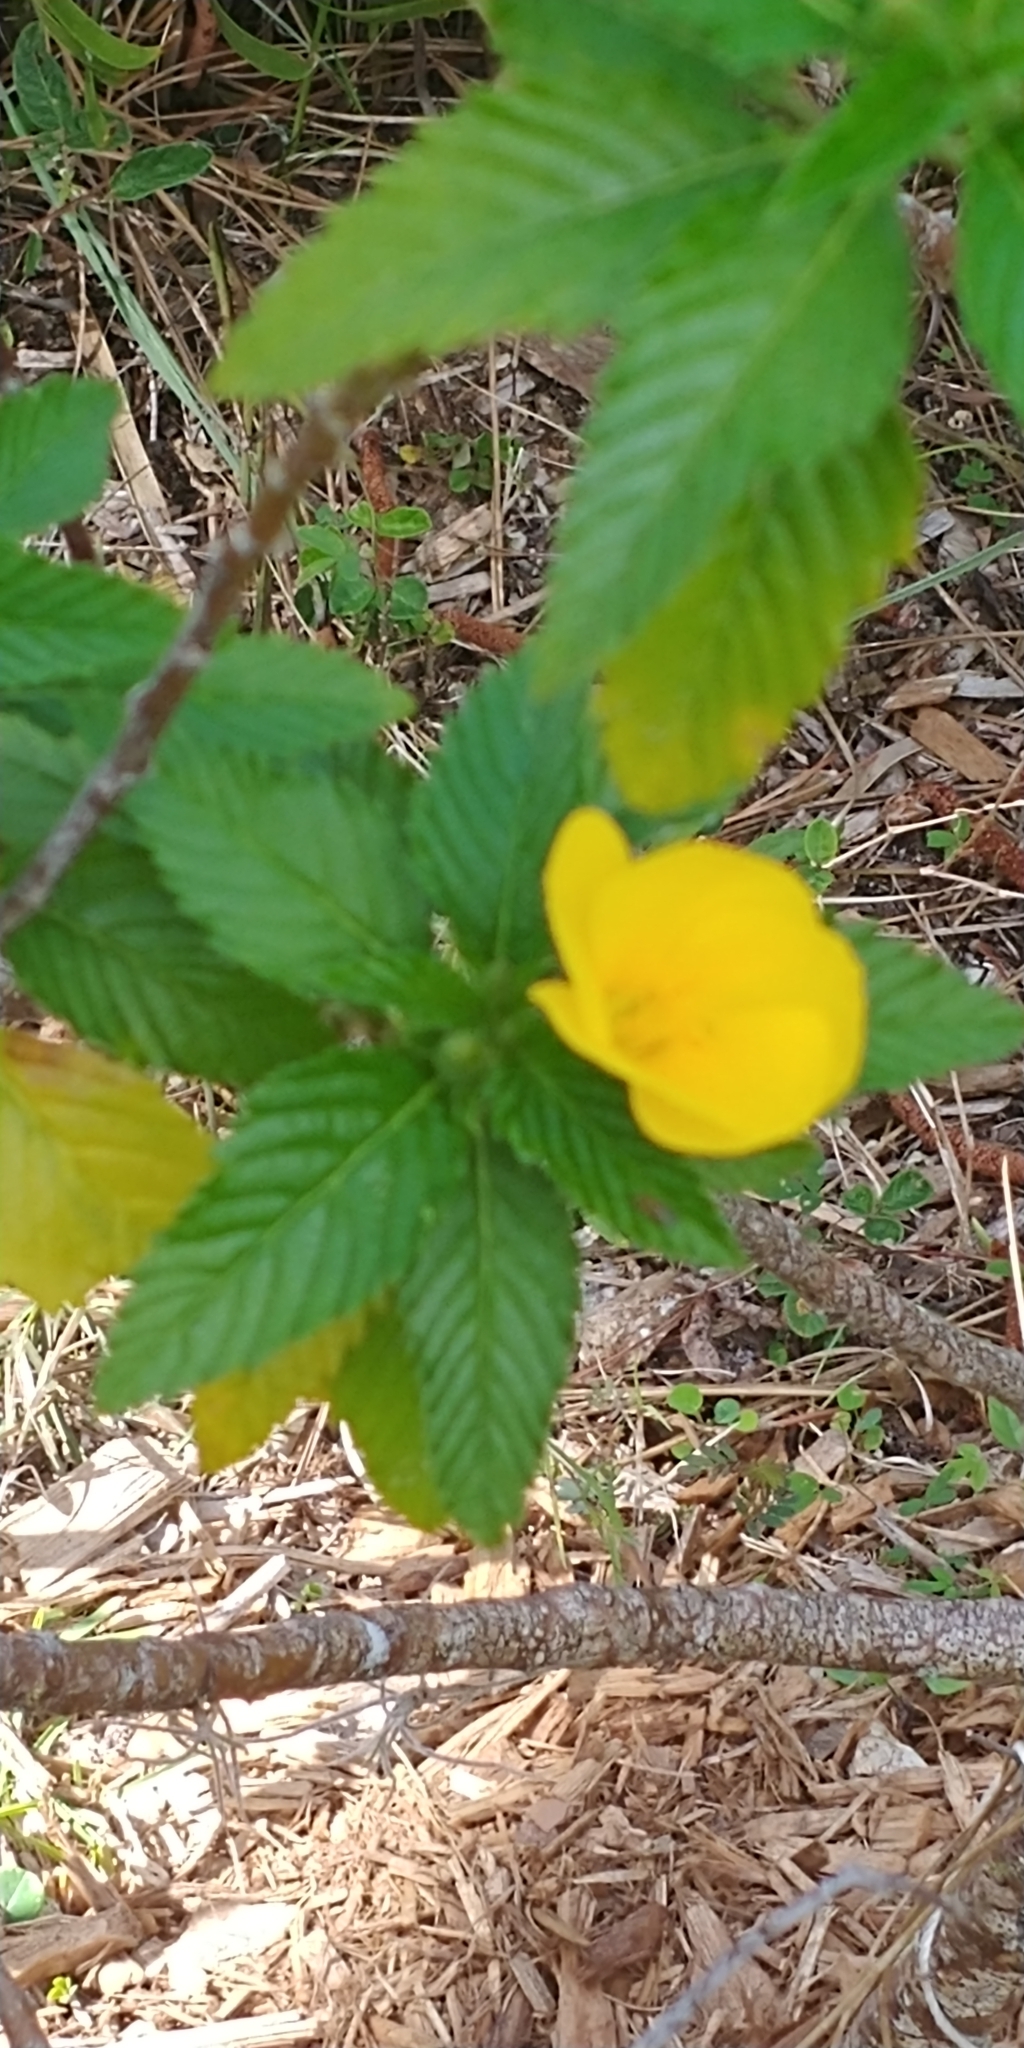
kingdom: Plantae
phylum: Tracheophyta
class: Magnoliopsida
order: Malpighiales
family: Turneraceae
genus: Turnera
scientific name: Turnera ulmifolia
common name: Ramgoat dashalong
